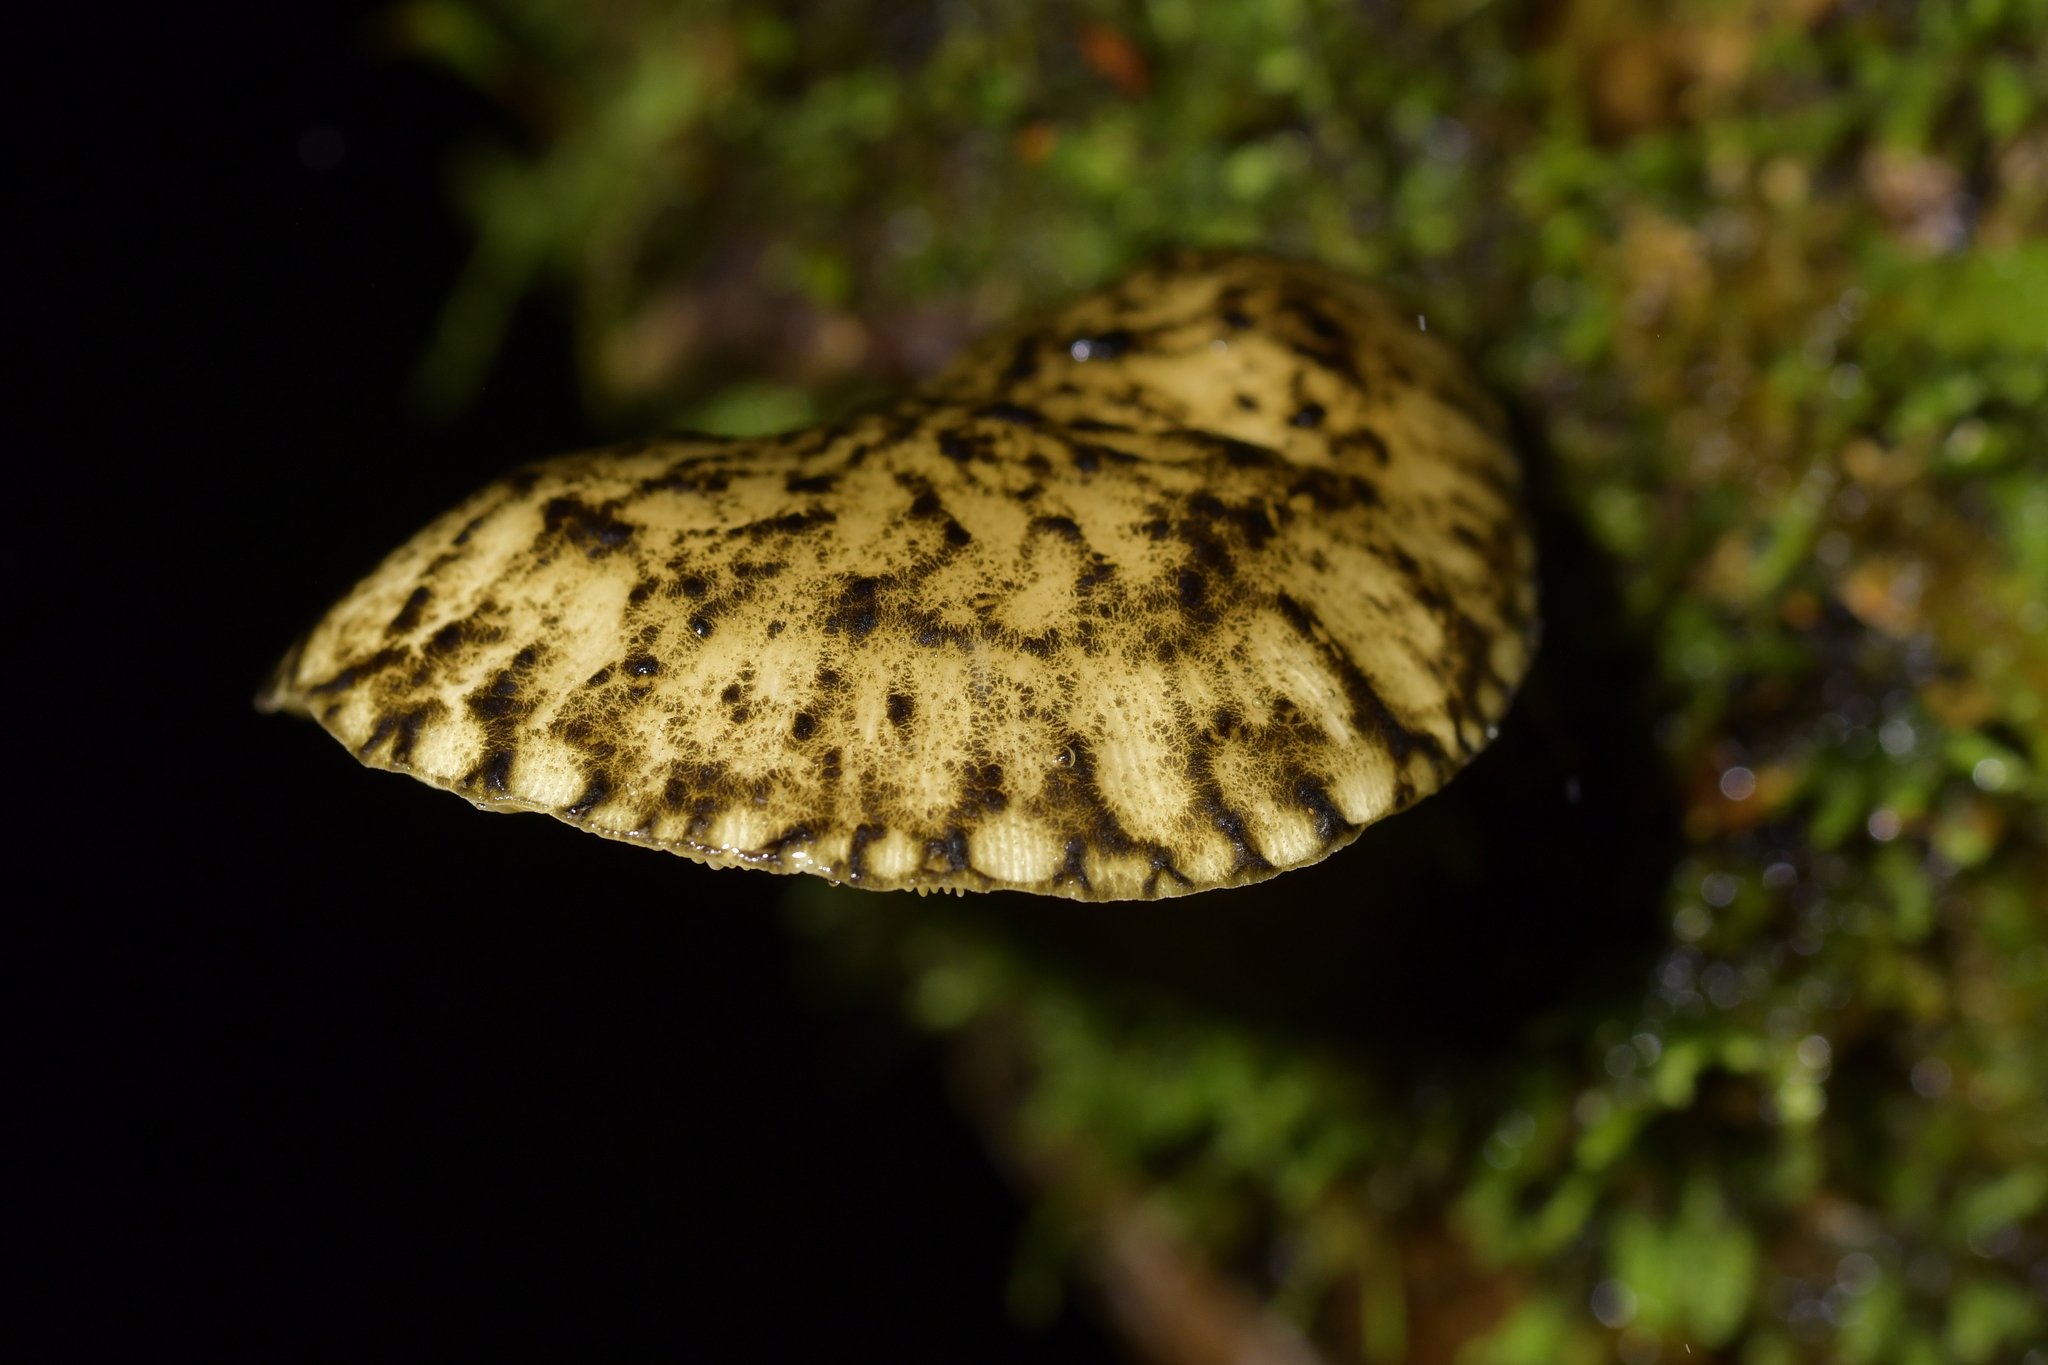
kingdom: Fungi
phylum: Basidiomycota
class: Agaricomycetes
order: Agaricales
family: Pluteaceae
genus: Pluteus
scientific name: Pluteus readiarum
